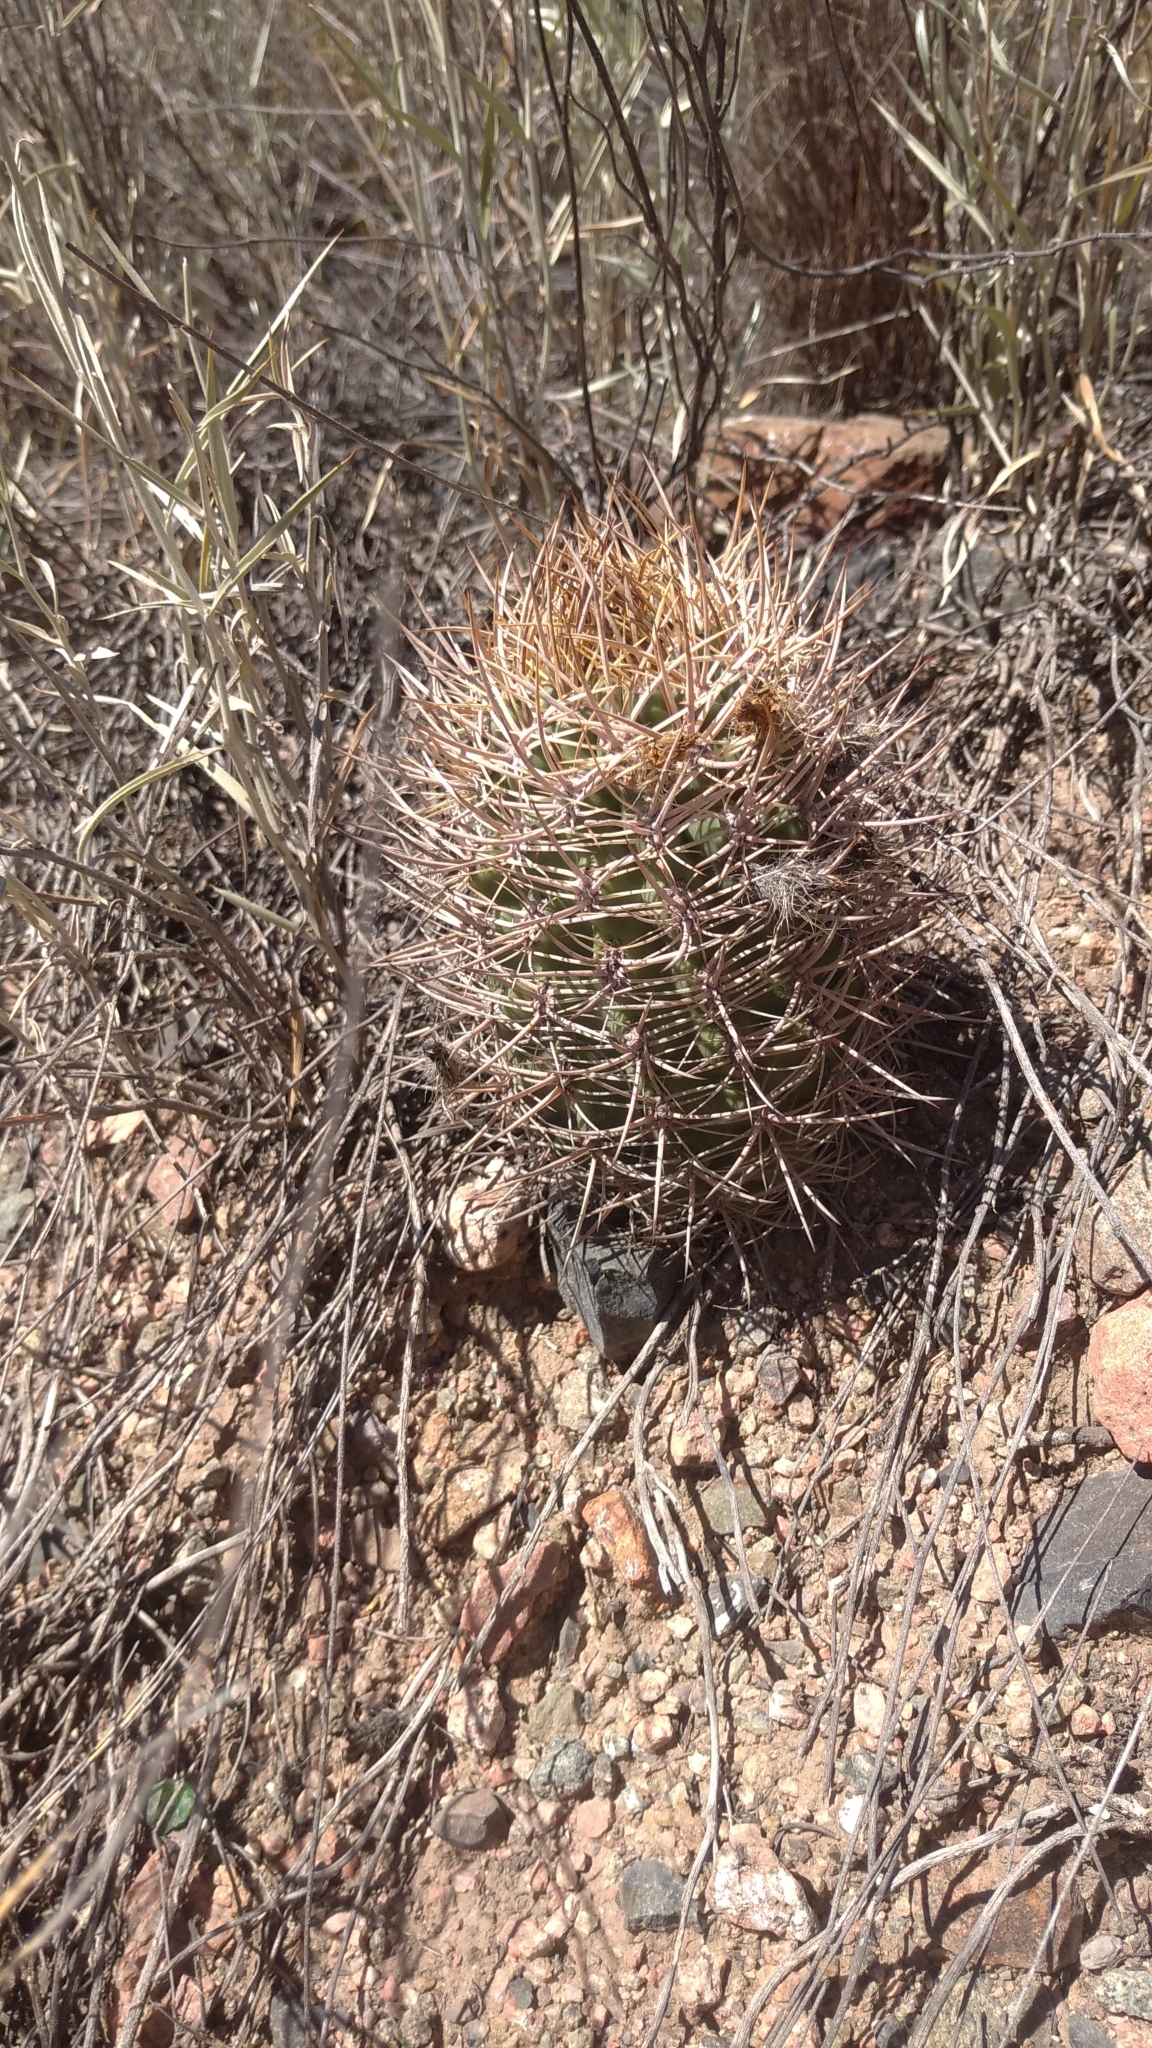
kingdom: Plantae
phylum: Tracheophyta
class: Magnoliopsida
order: Caryophyllales
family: Cactaceae
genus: Eriosyce
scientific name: Eriosyce strausiana
